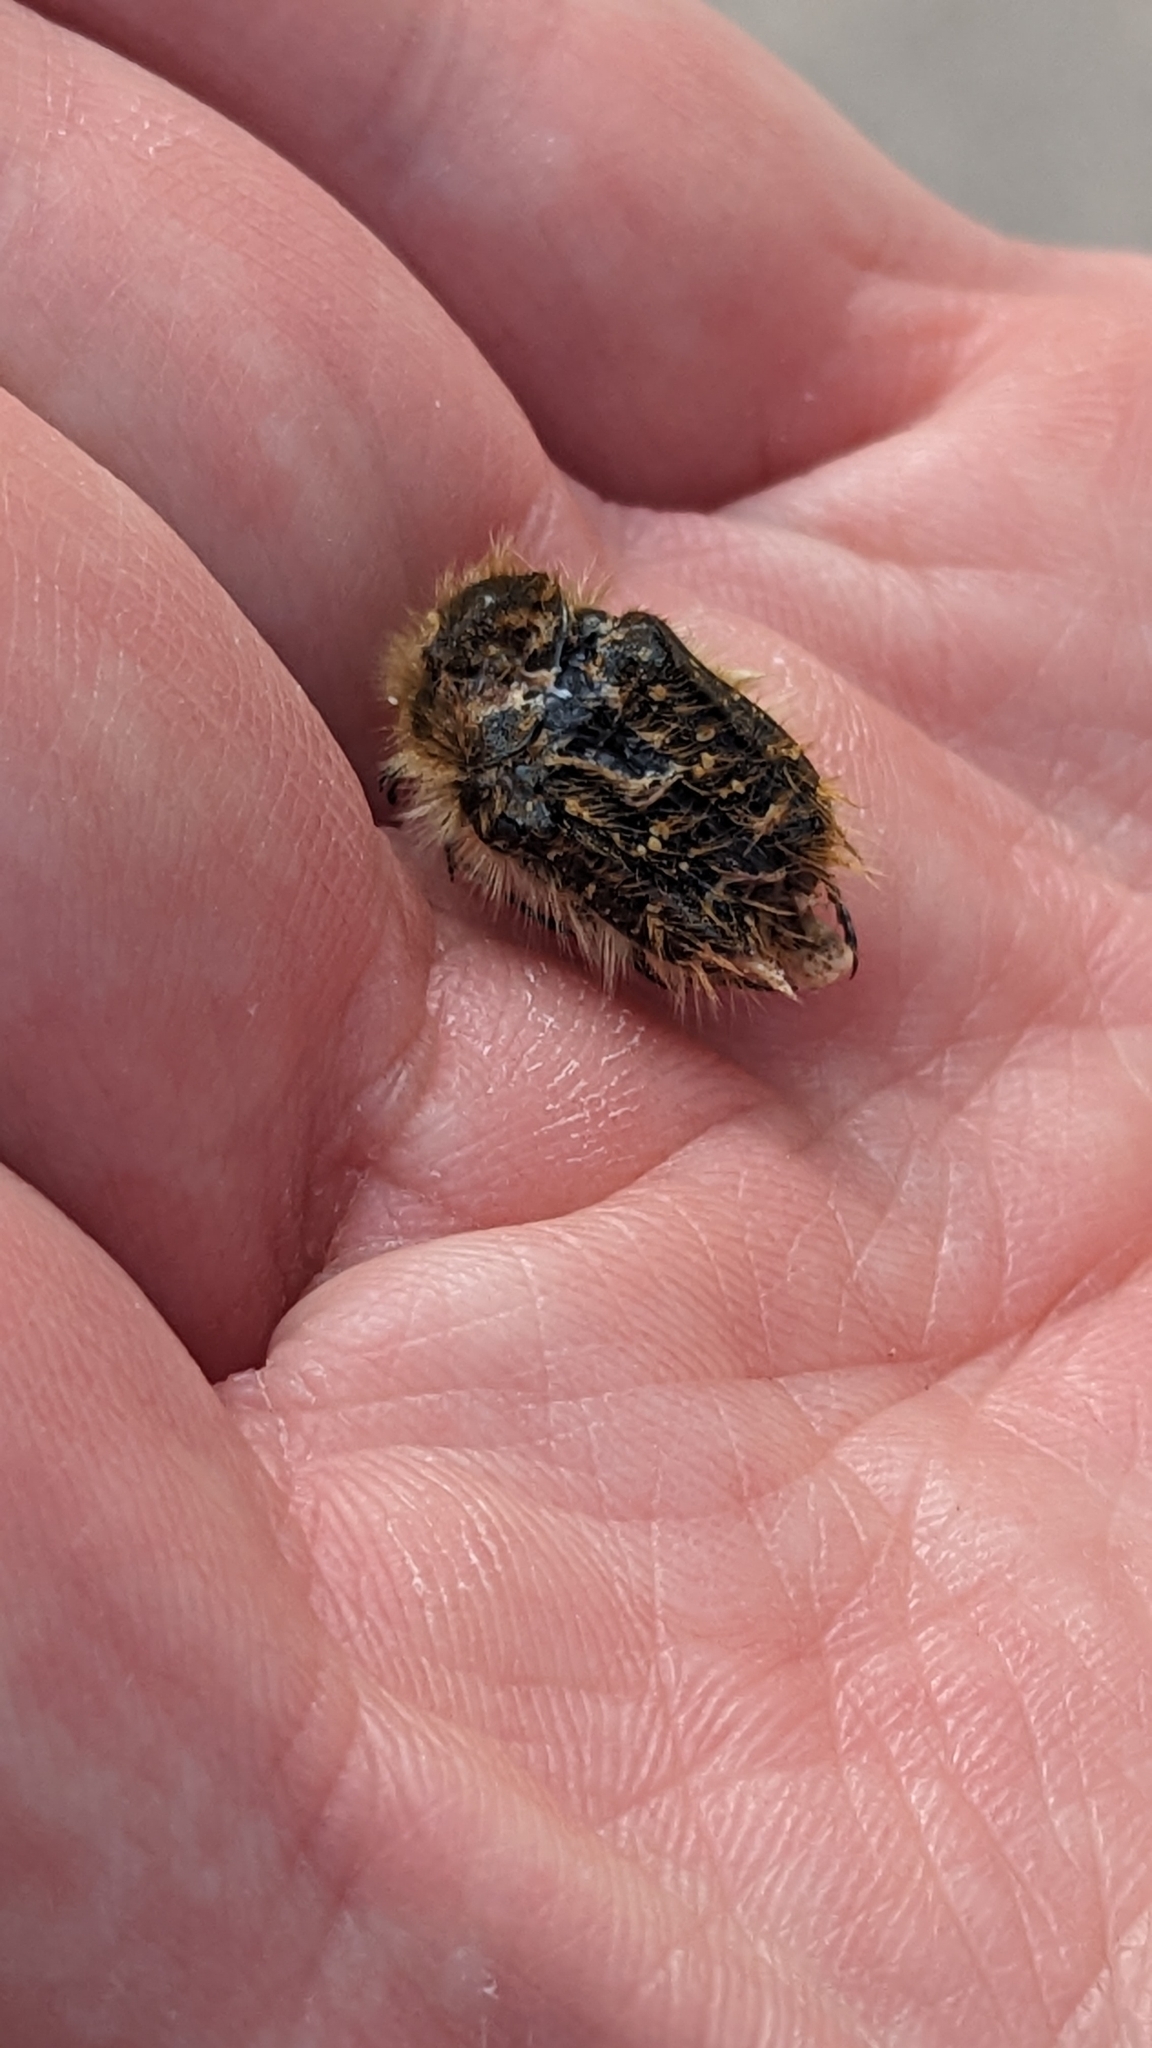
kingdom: Animalia
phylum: Arthropoda
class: Insecta
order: Coleoptera
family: Scarabaeidae
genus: Tropinota
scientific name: Tropinota squalida
